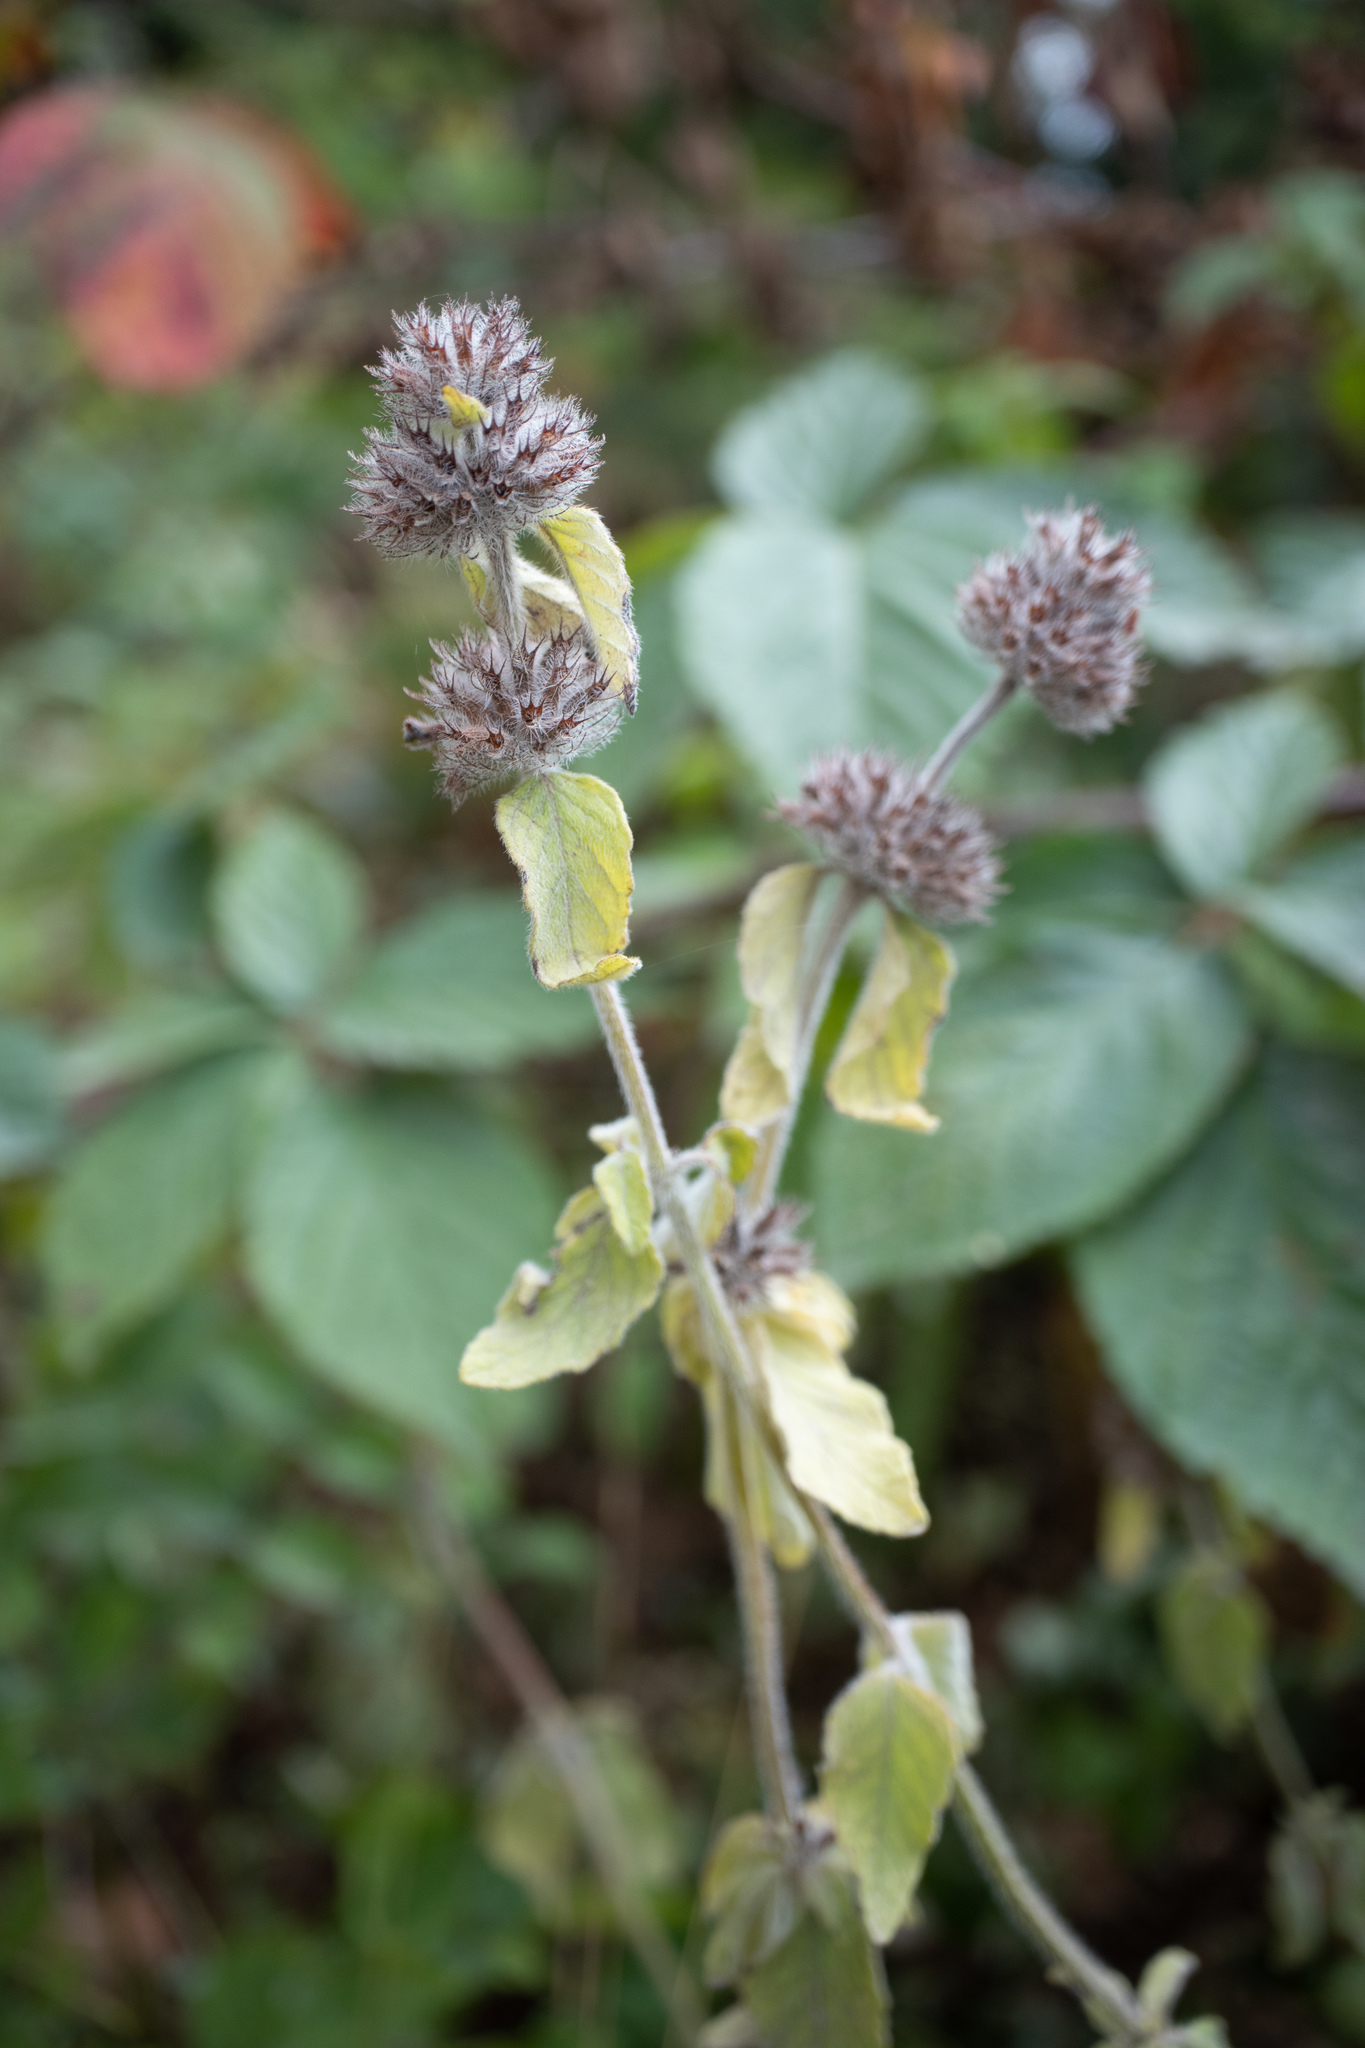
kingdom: Plantae
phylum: Tracheophyta
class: Magnoliopsida
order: Lamiales
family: Lamiaceae
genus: Clinopodium
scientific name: Clinopodium vulgare
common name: Wild basil
